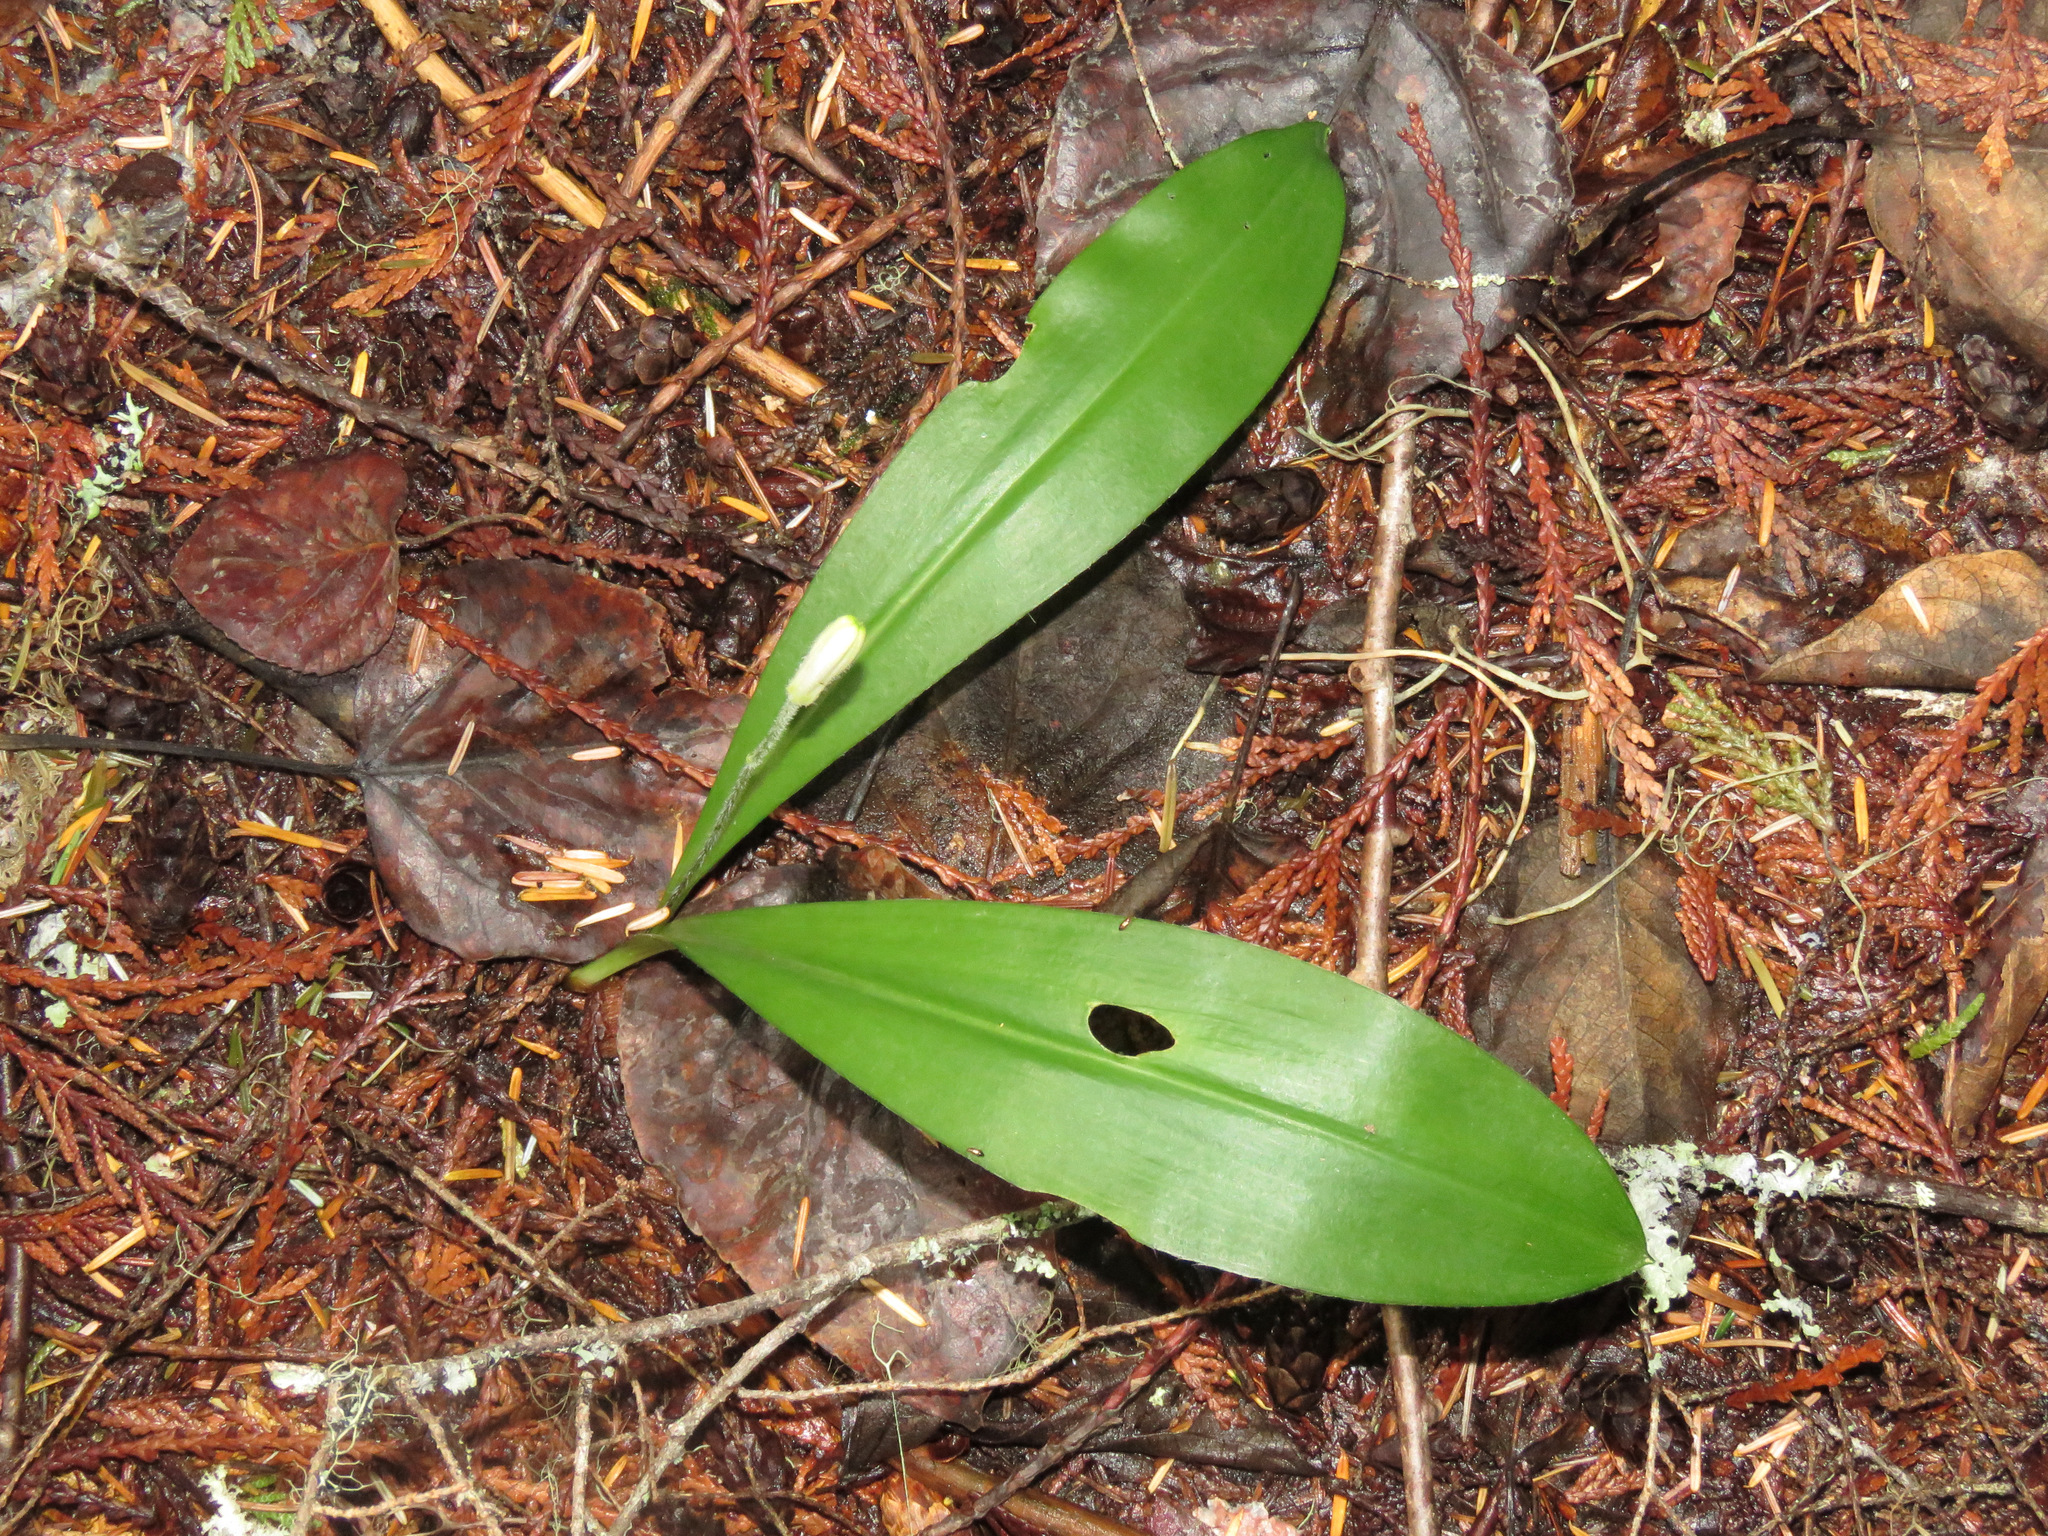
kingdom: Plantae
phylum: Tracheophyta
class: Liliopsida
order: Liliales
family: Liliaceae
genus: Clintonia
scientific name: Clintonia uniflora
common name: Queen's cup
